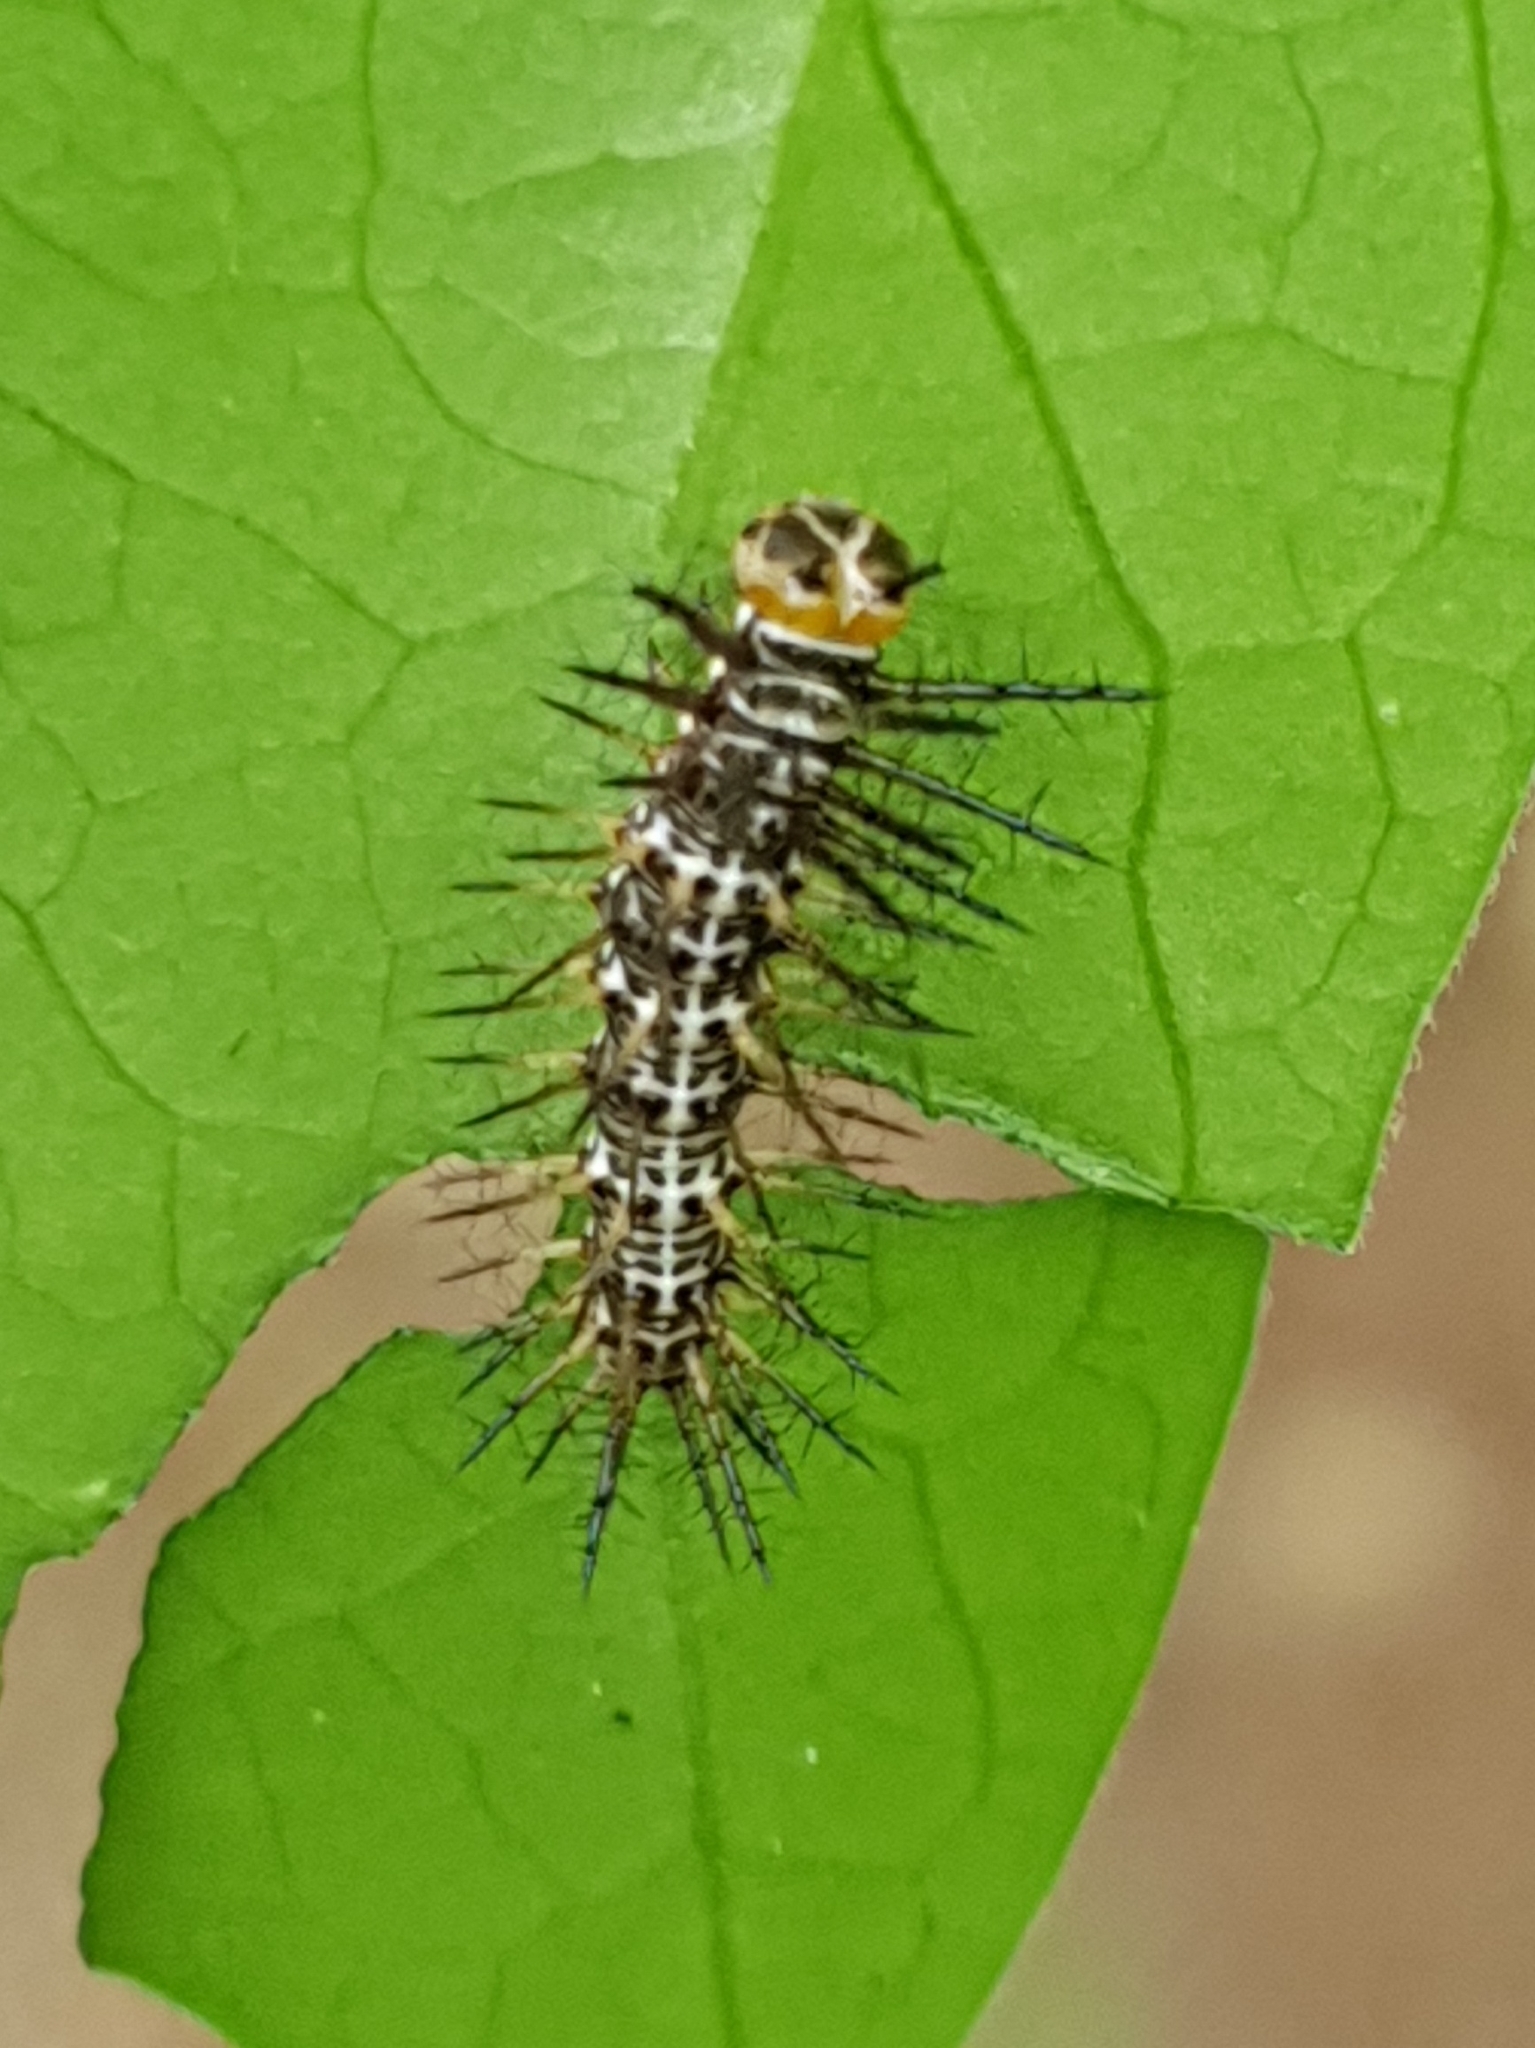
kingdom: Animalia
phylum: Arthropoda
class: Insecta
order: Lepidoptera
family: Nymphalidae
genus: Dryas
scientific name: Dryas iulia
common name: Flambeau
